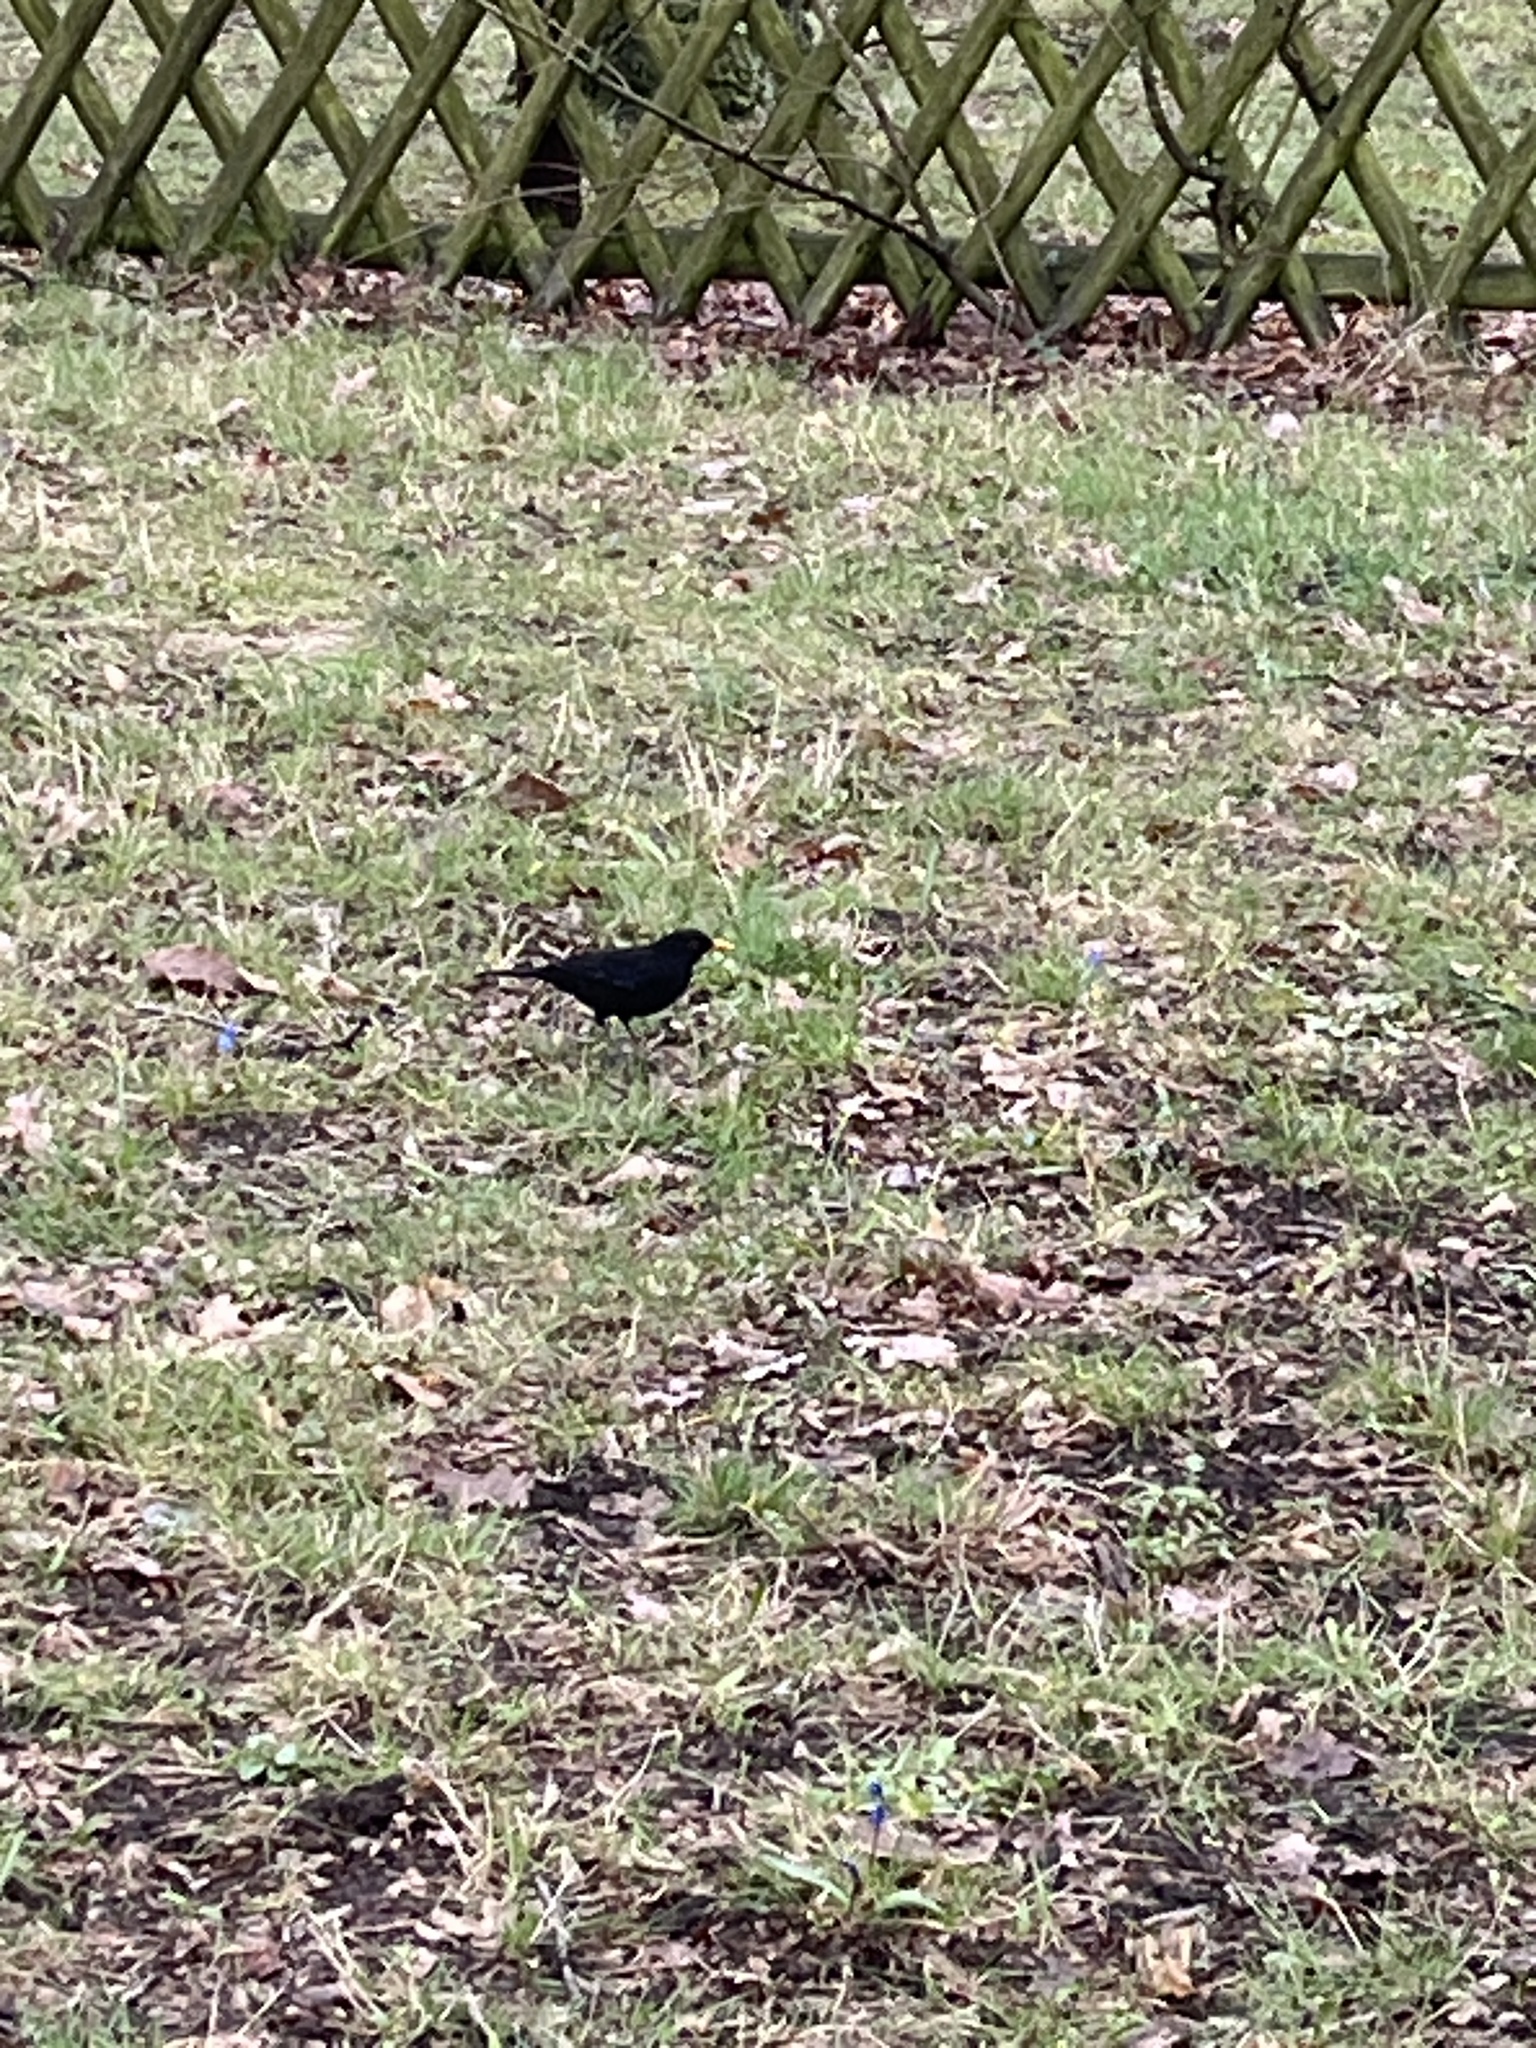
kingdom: Animalia
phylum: Chordata
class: Aves
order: Passeriformes
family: Turdidae
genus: Turdus
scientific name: Turdus merula
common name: Common blackbird
